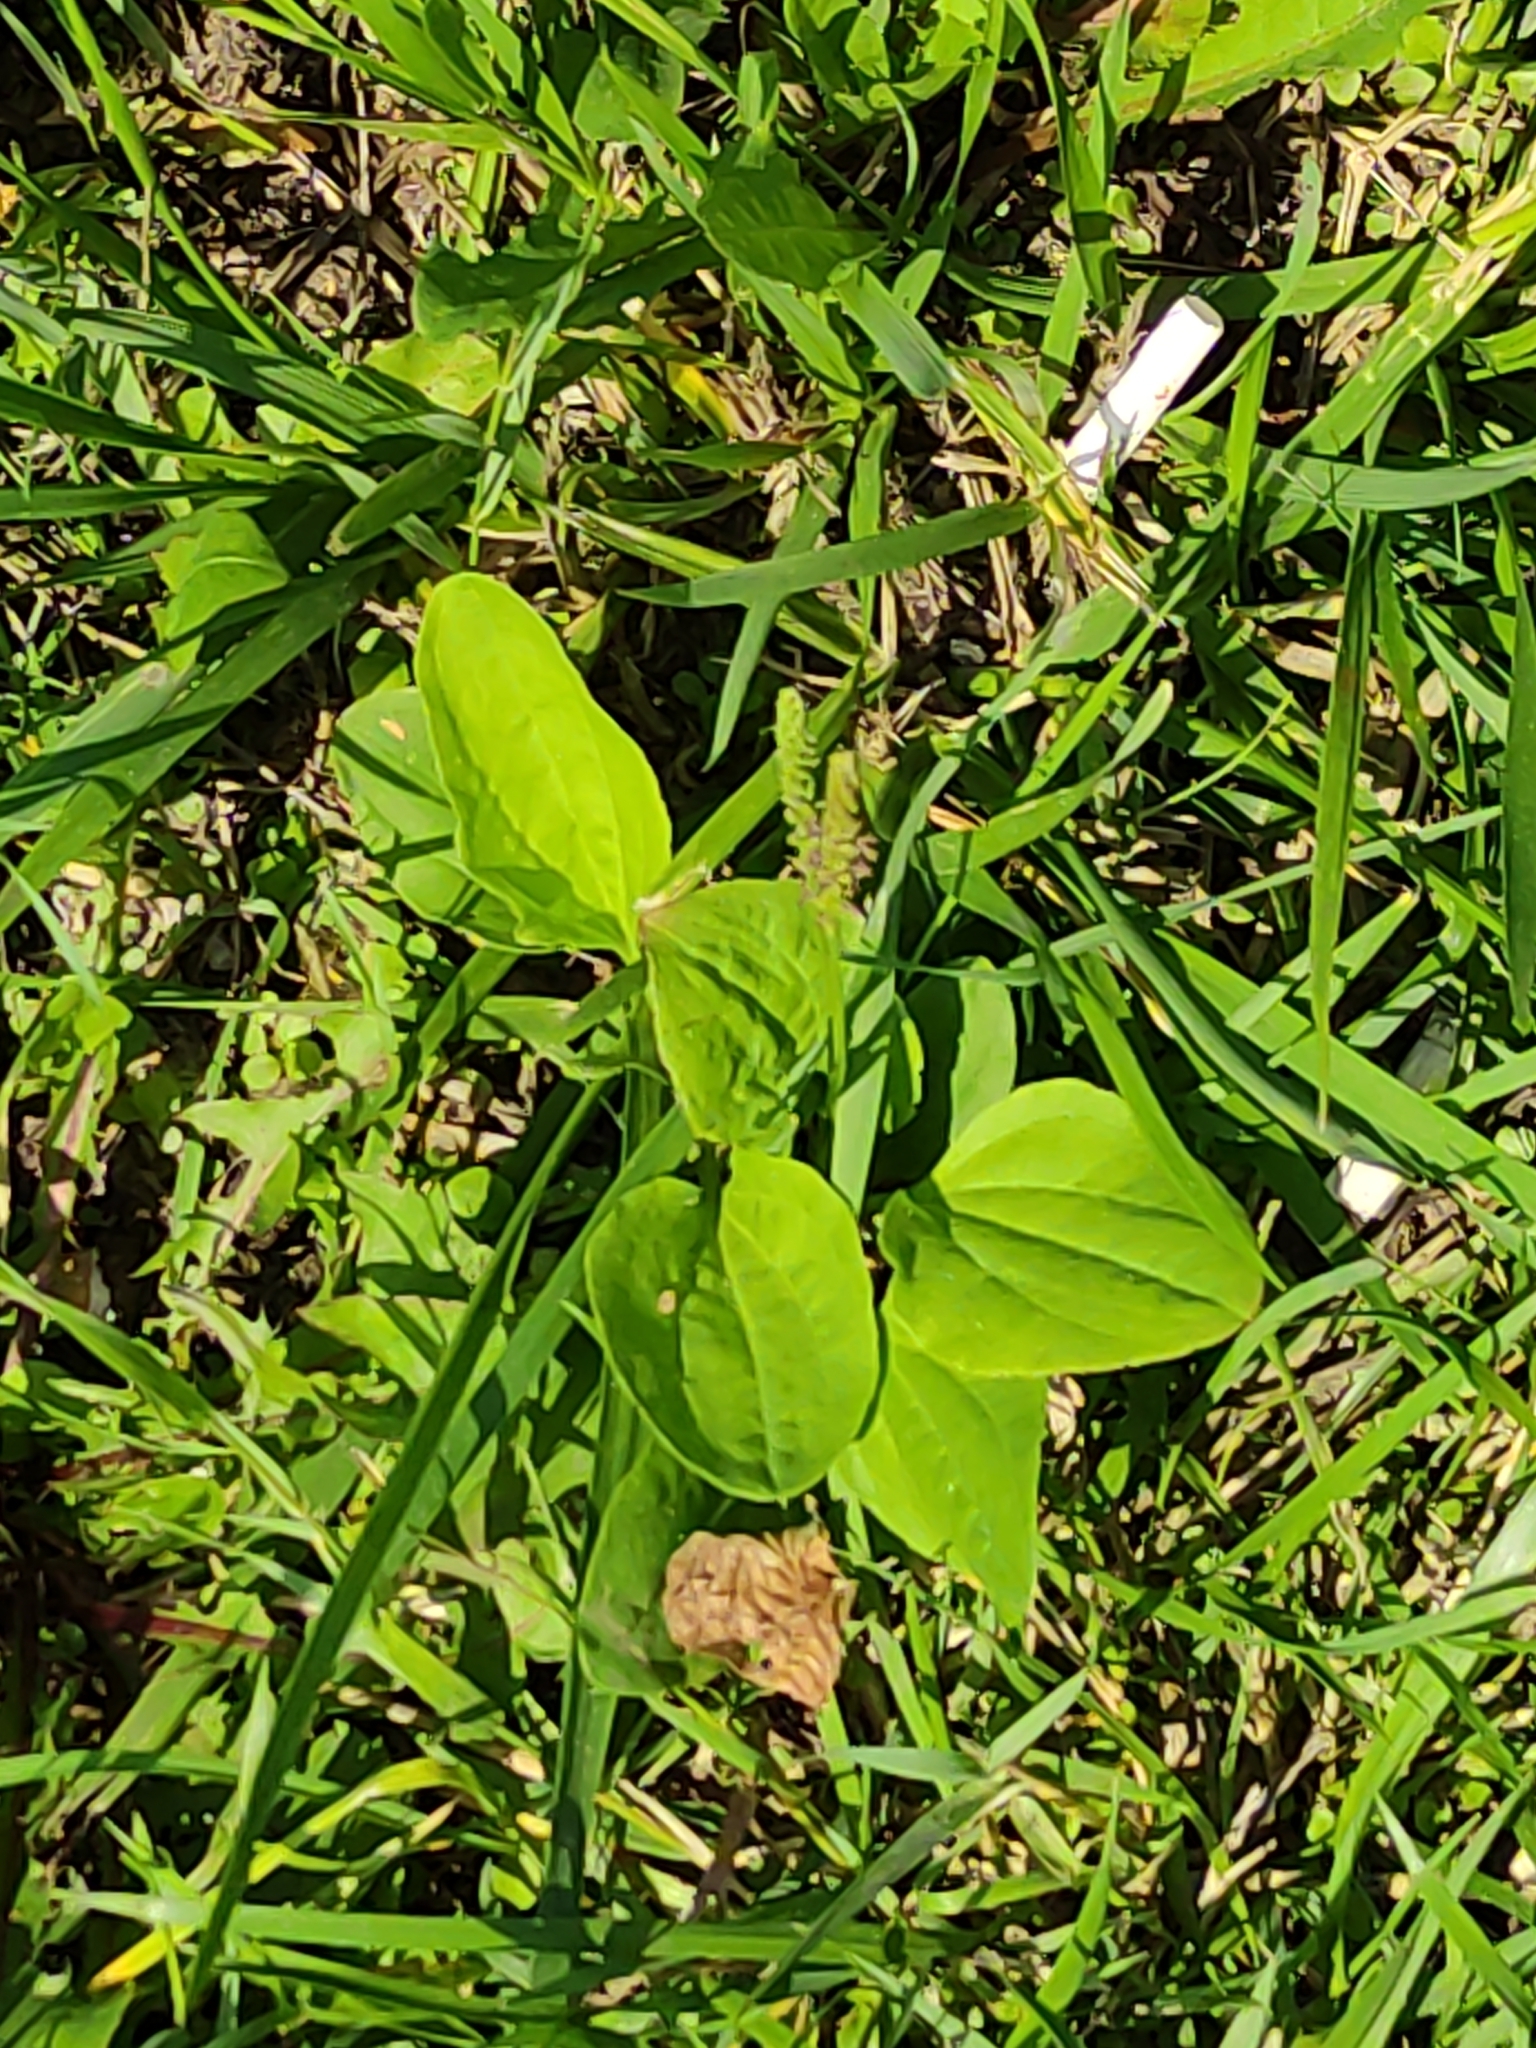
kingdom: Plantae
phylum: Tracheophyta
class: Magnoliopsida
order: Lamiales
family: Plantaginaceae
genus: Plantago
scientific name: Plantago major
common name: Common plantain
